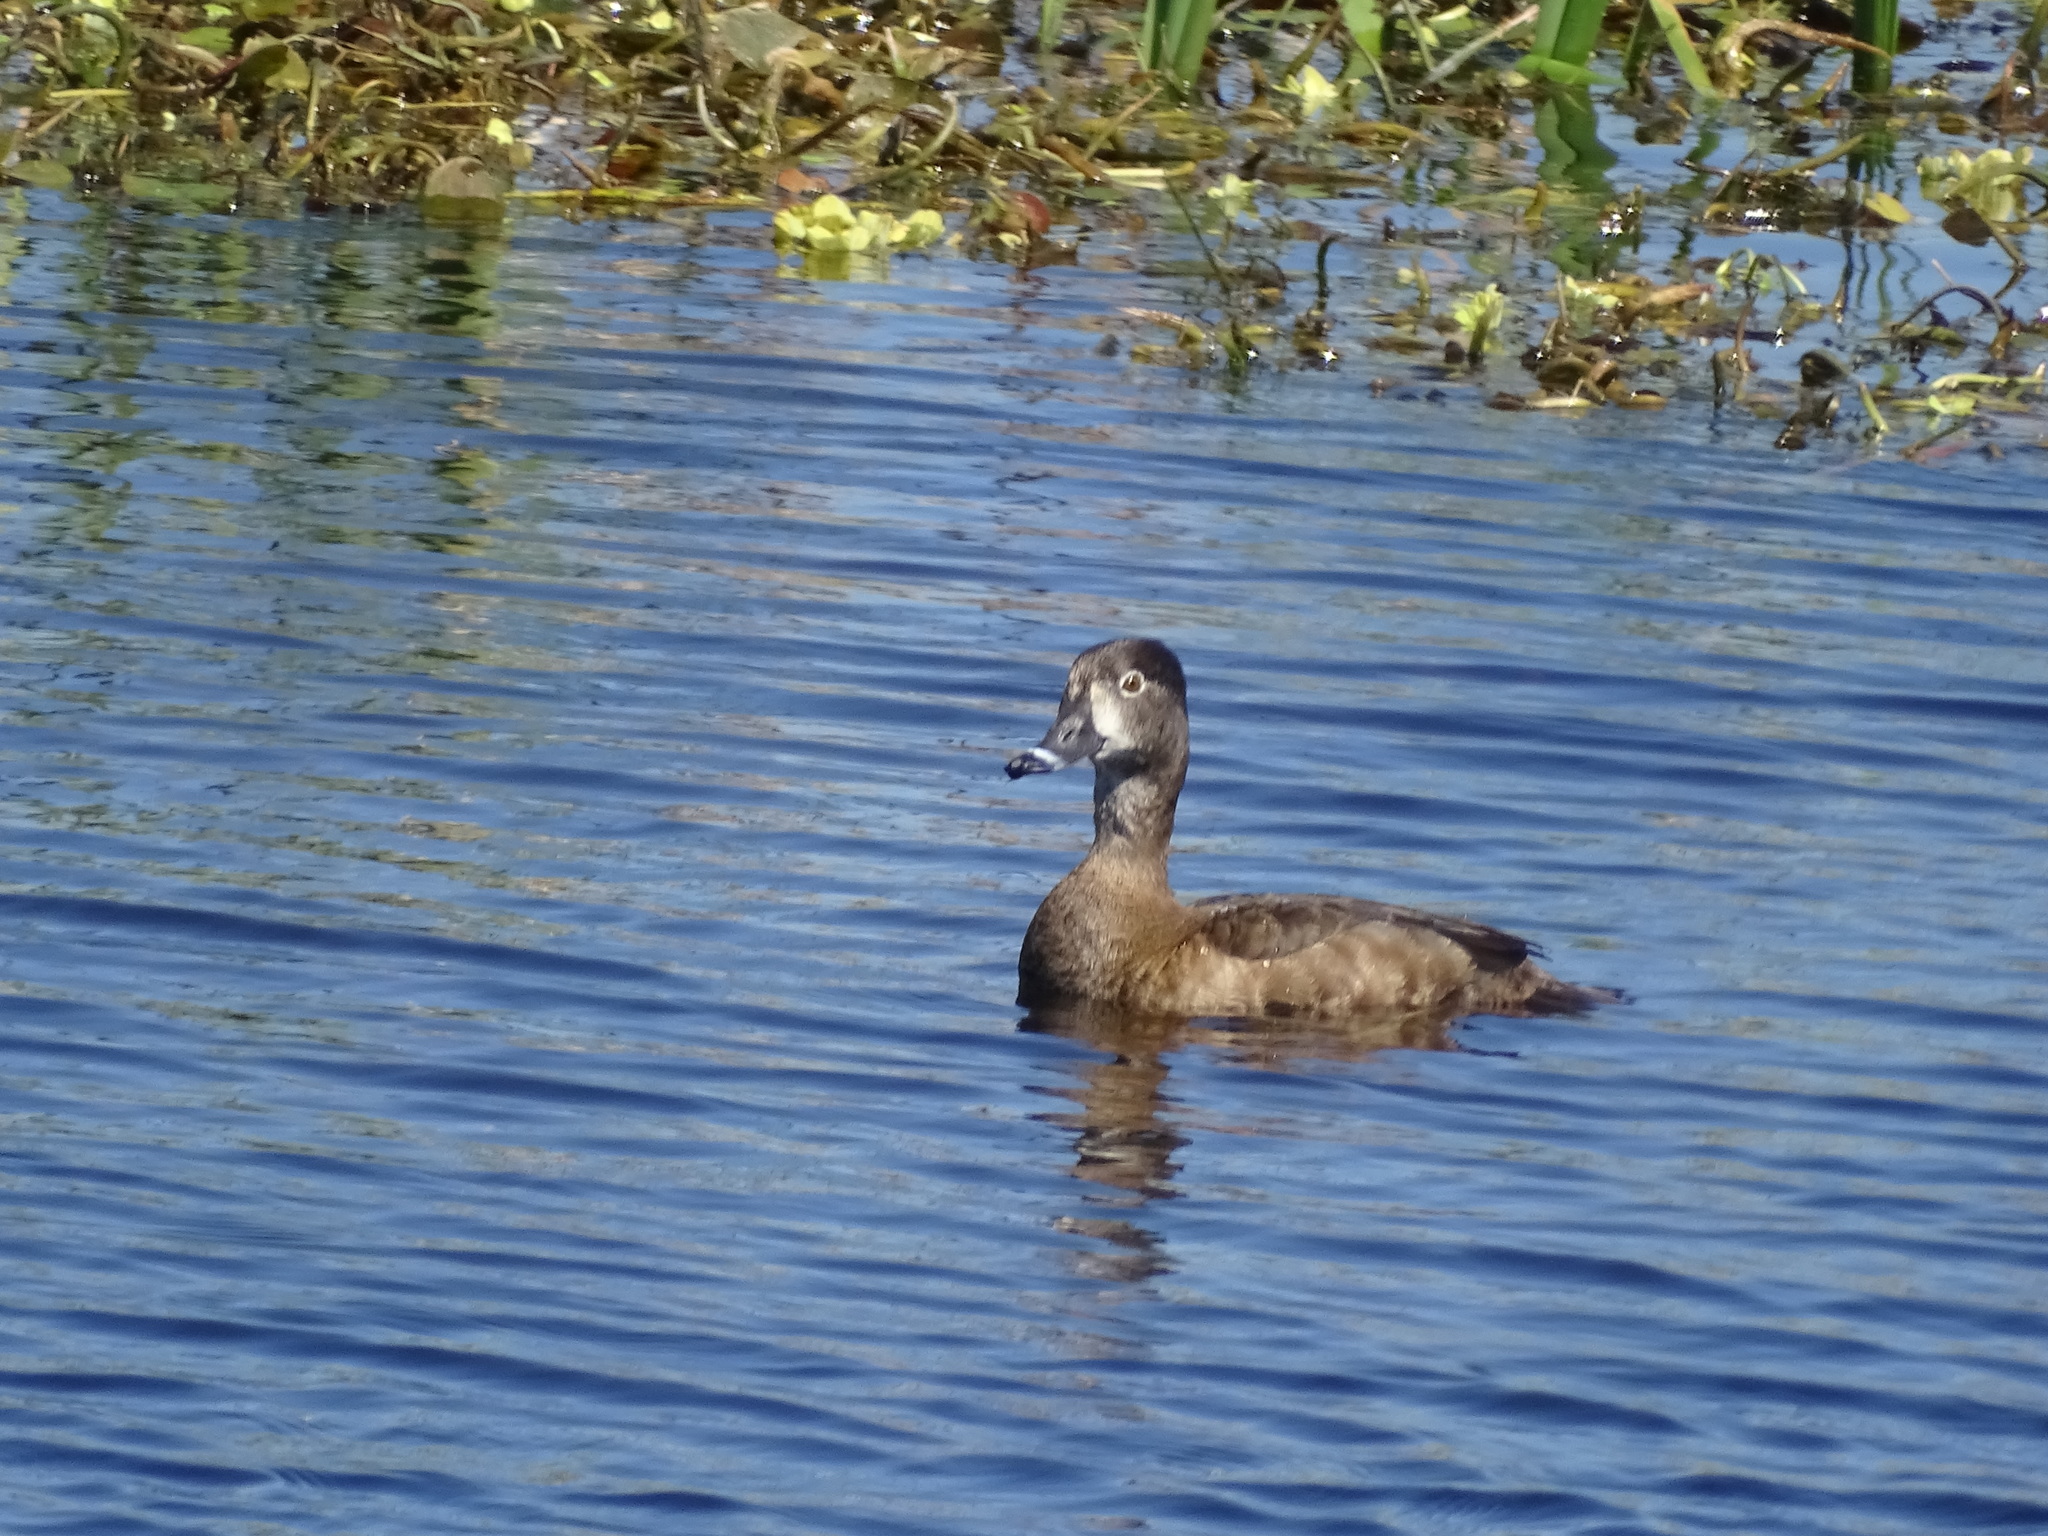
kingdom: Animalia
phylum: Chordata
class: Aves
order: Anseriformes
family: Anatidae
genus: Aythya
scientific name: Aythya collaris
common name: Ring-necked duck
